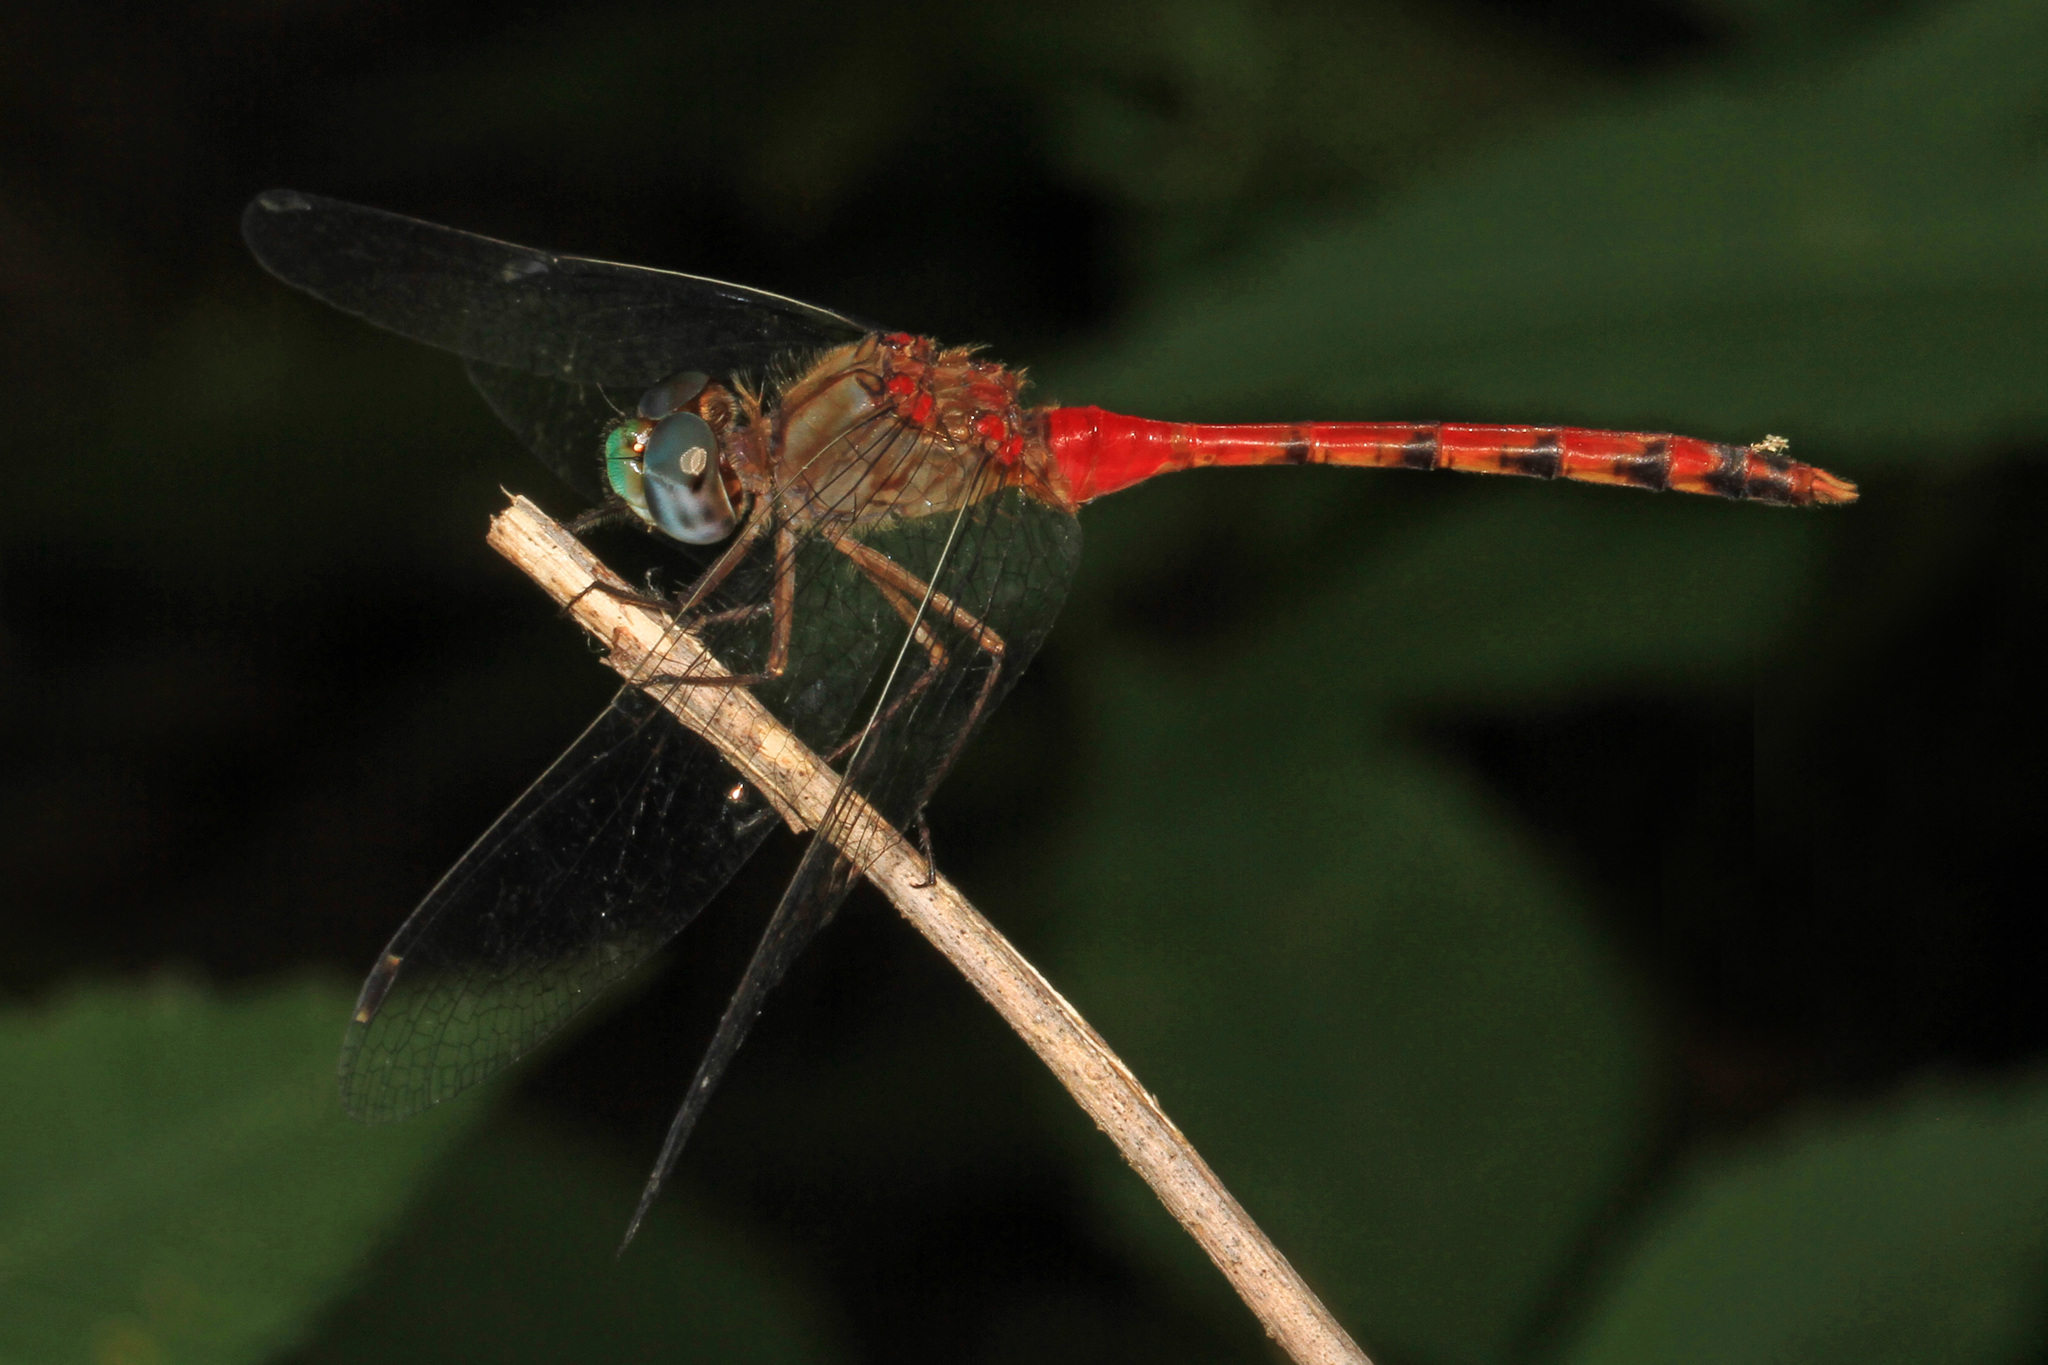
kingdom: Animalia
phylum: Arthropoda
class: Insecta
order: Odonata
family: Libellulidae
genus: Sympetrum
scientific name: Sympetrum ambiguum
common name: Blue-faced meadowhawk
